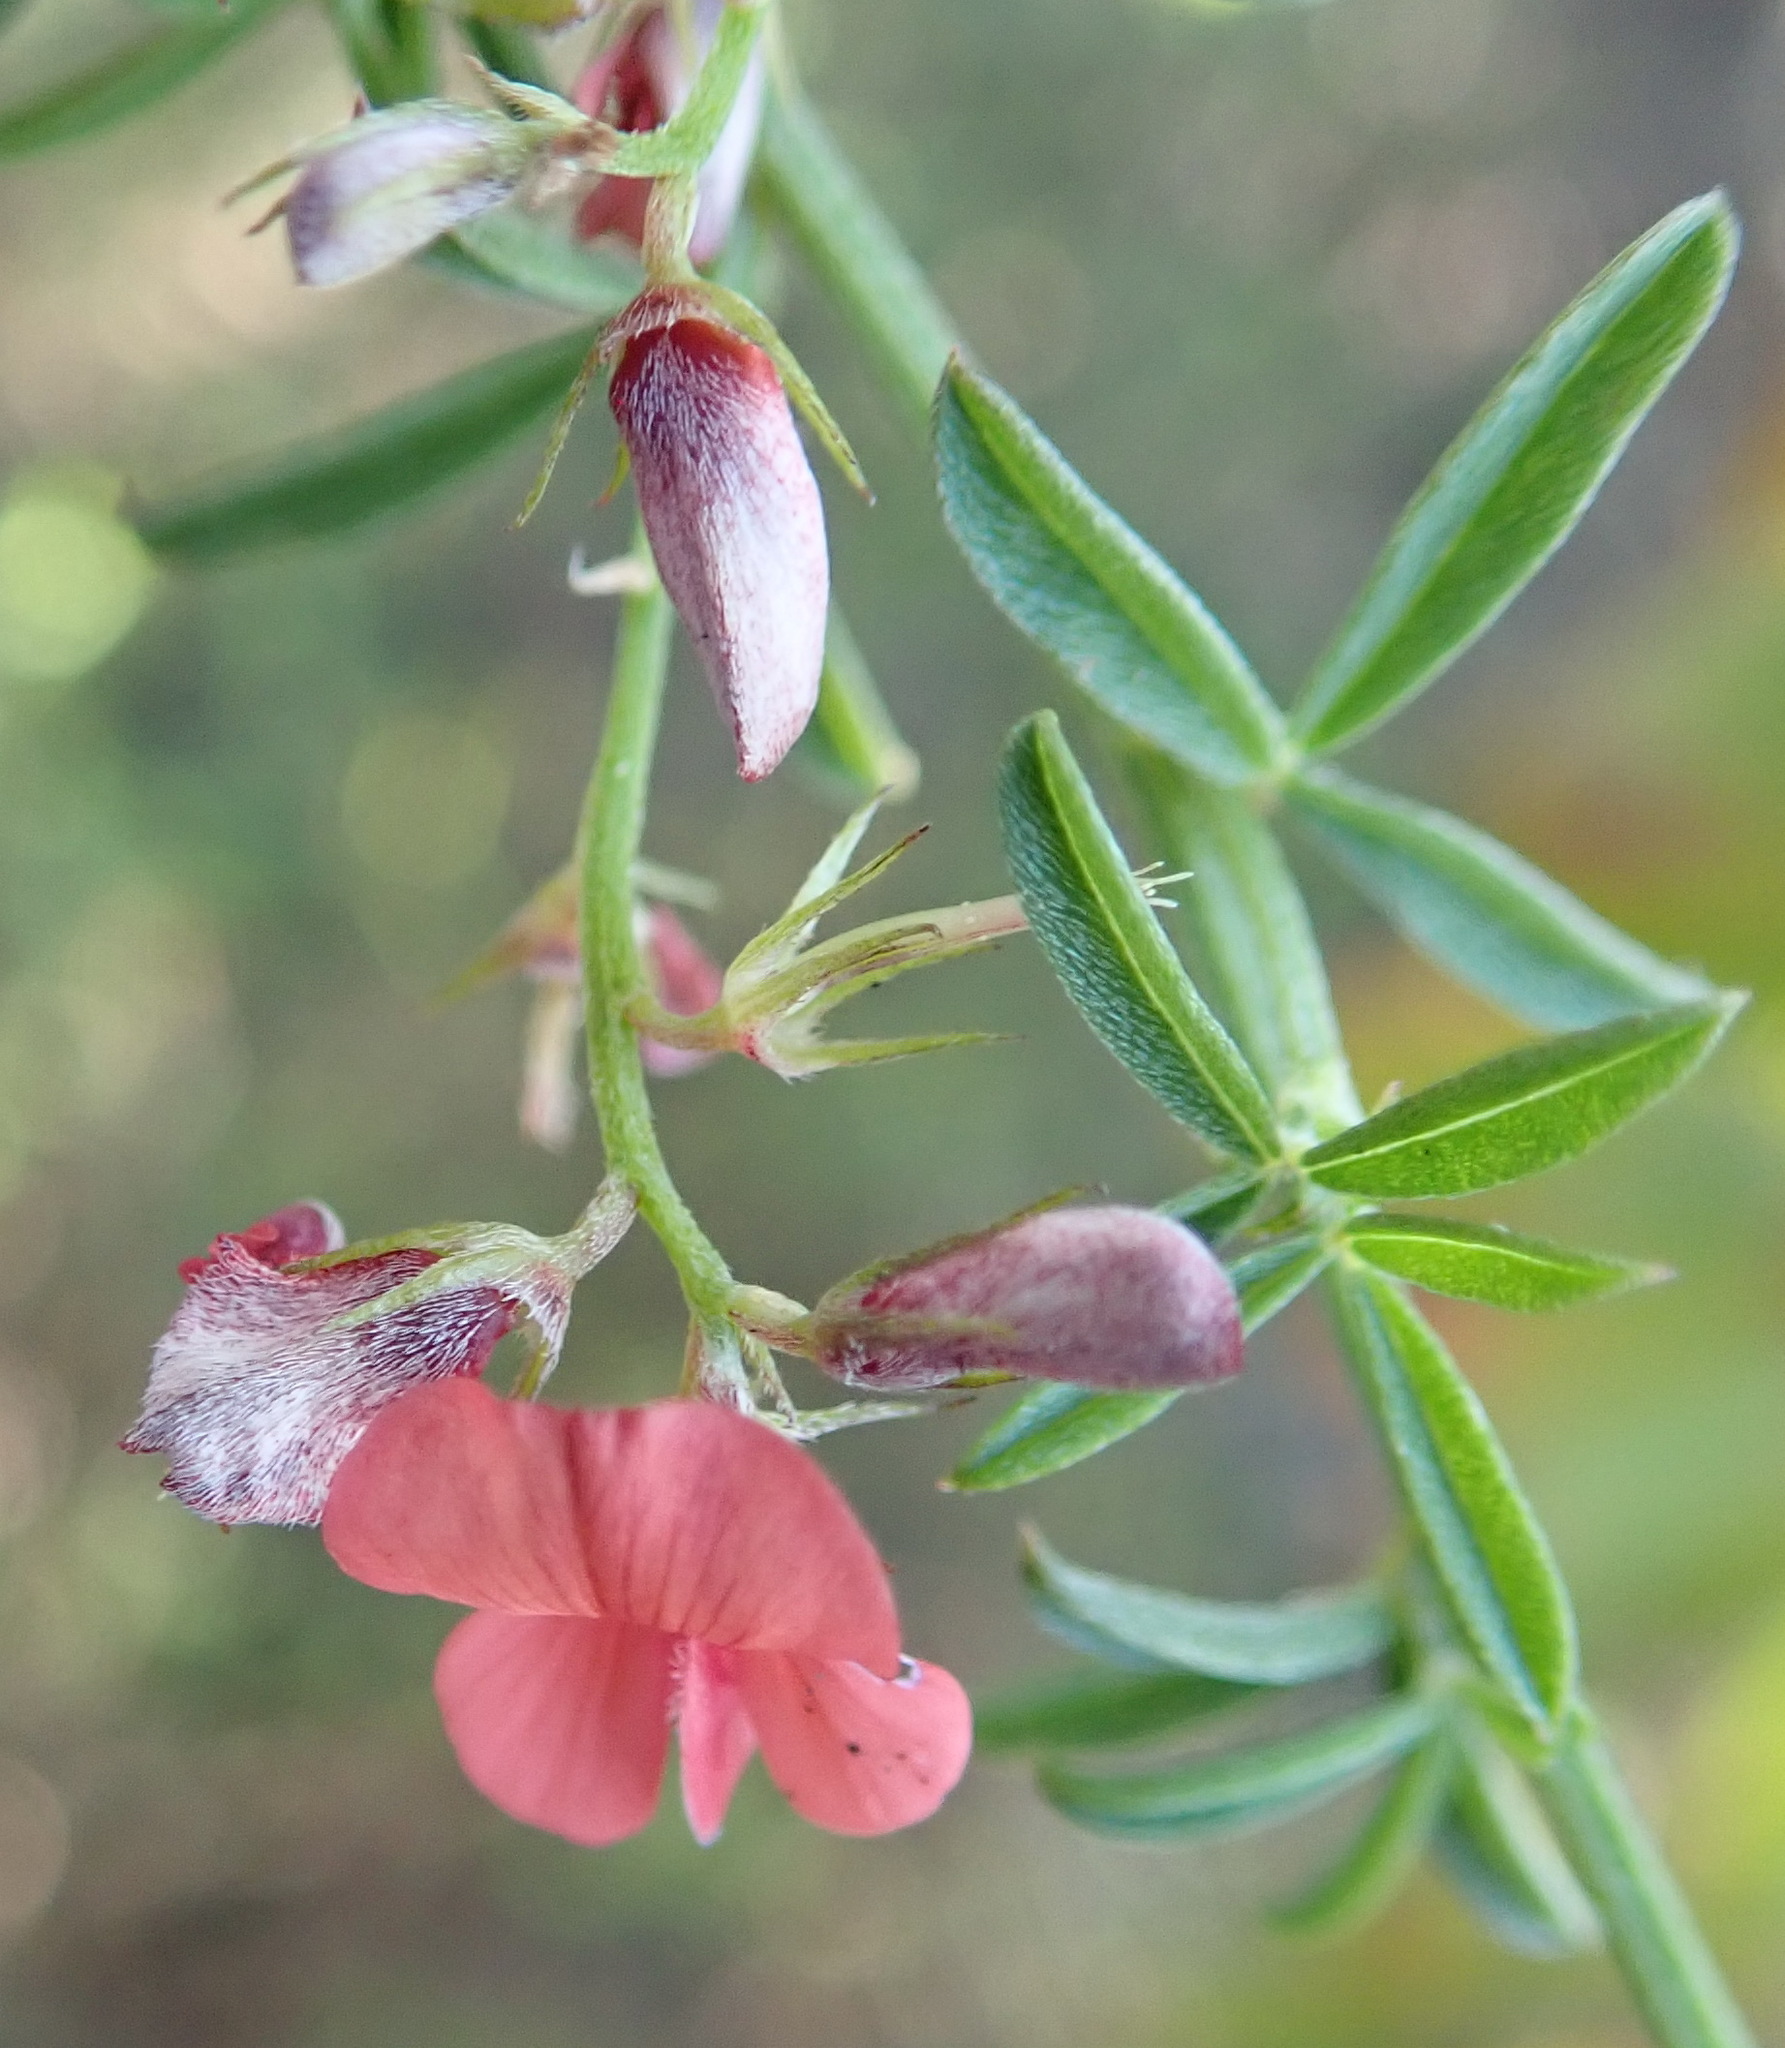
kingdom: Plantae
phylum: Tracheophyta
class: Magnoliopsida
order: Fabales
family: Fabaceae
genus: Indigofera
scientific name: Indigofera priorii
